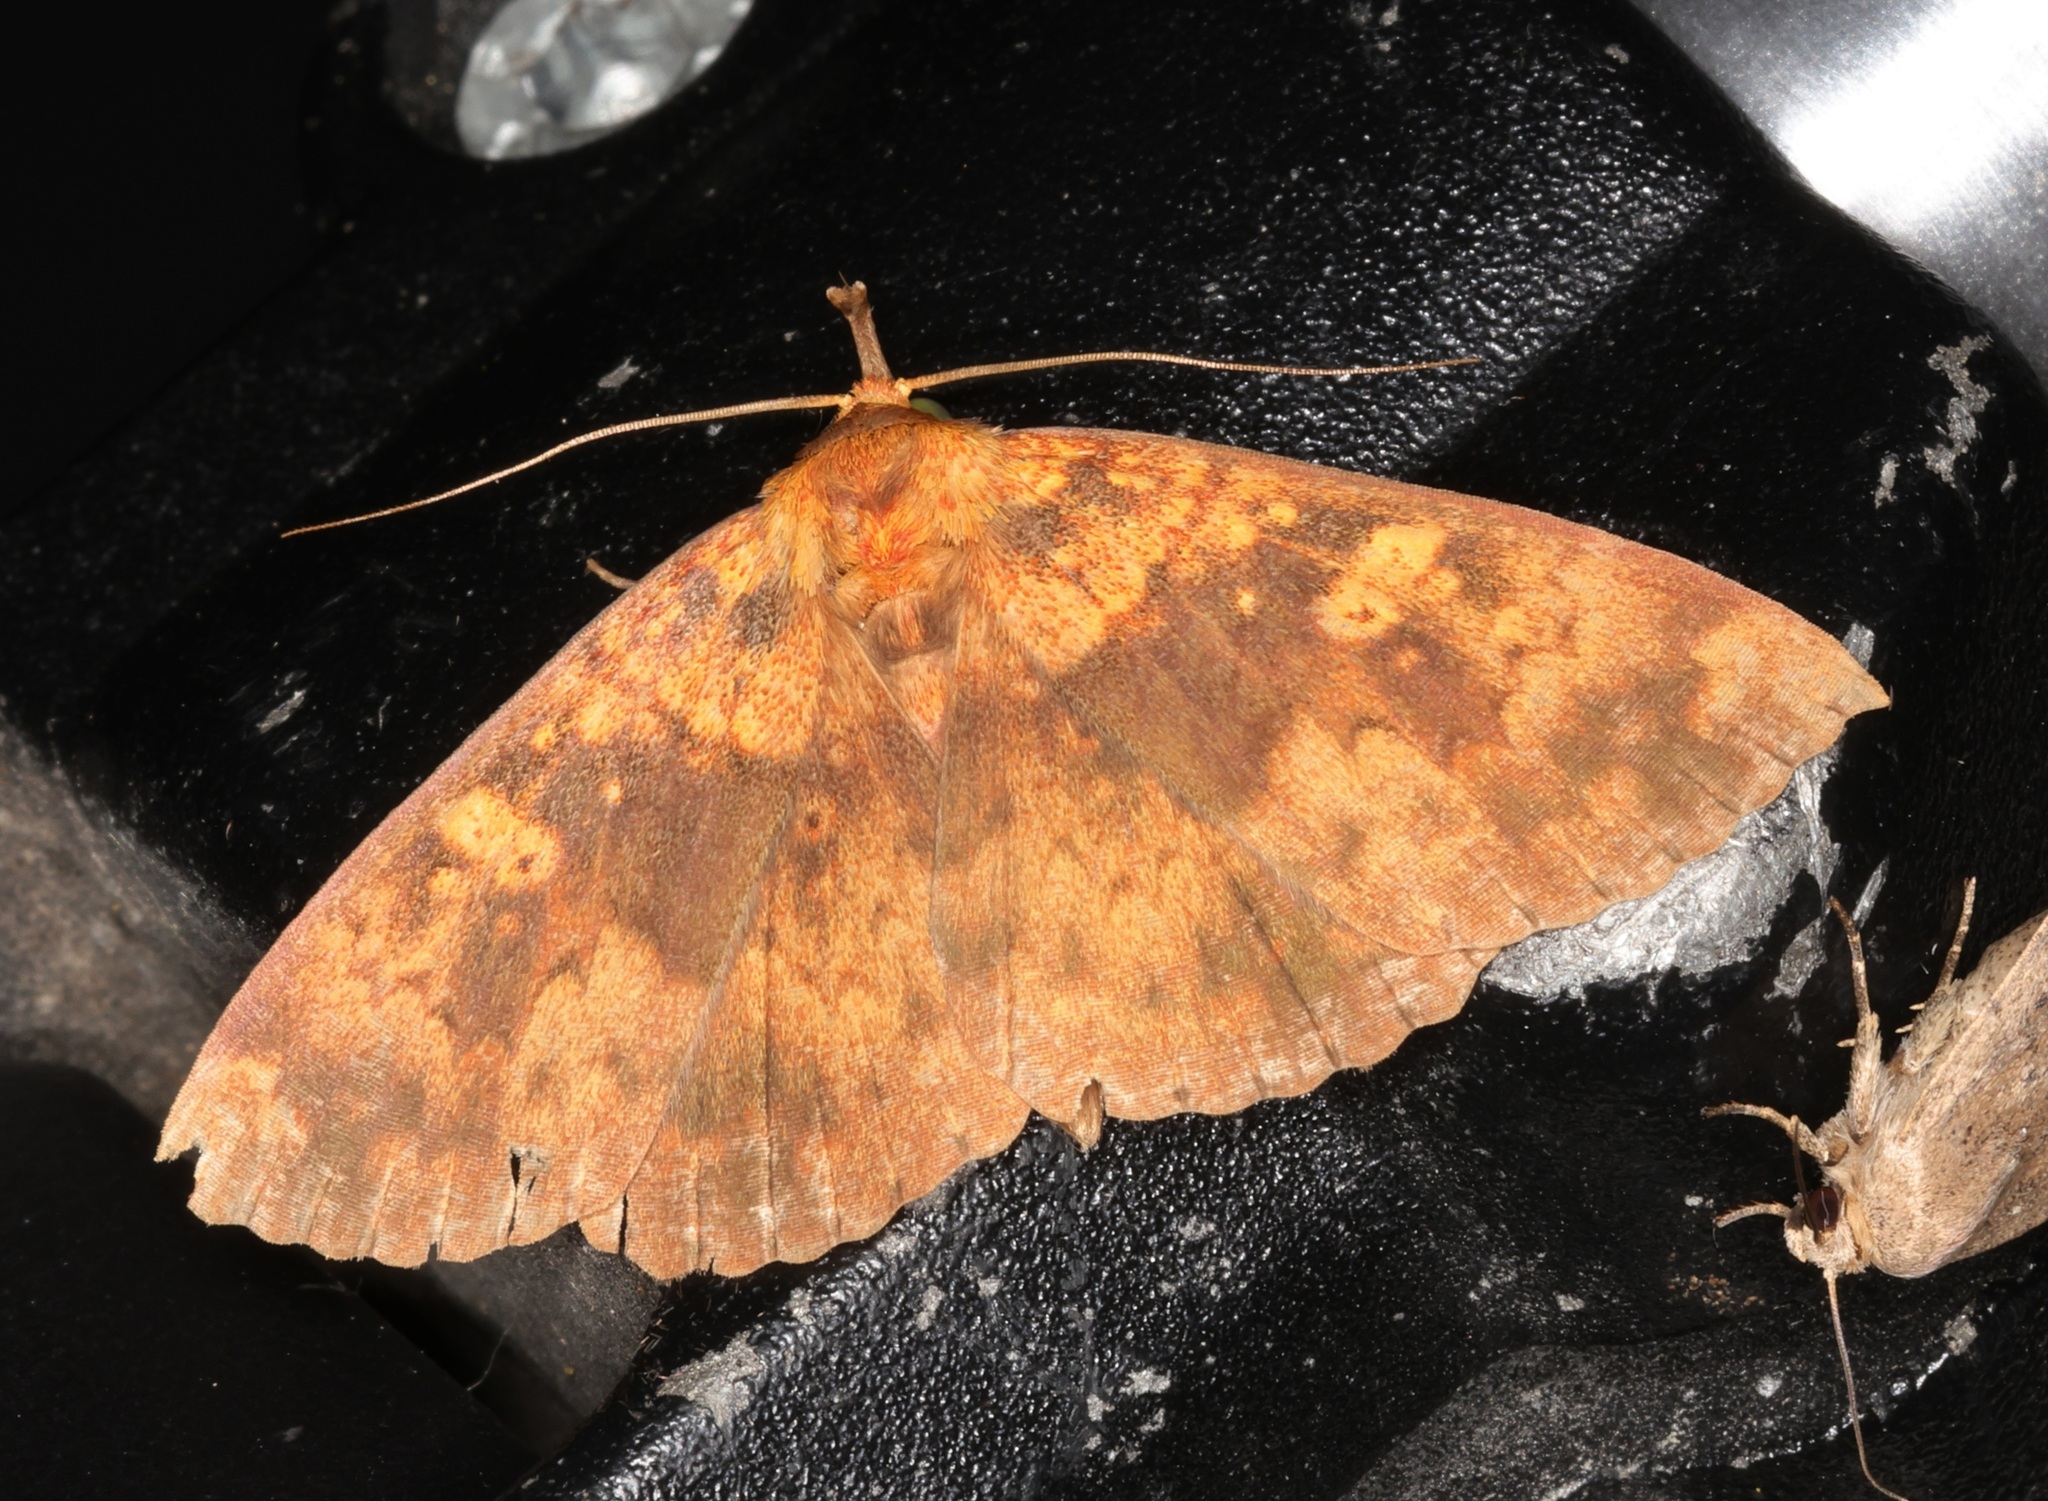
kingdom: Animalia
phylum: Arthropoda
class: Insecta
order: Lepidoptera
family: Erebidae
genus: Singara
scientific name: Singara diversalis
